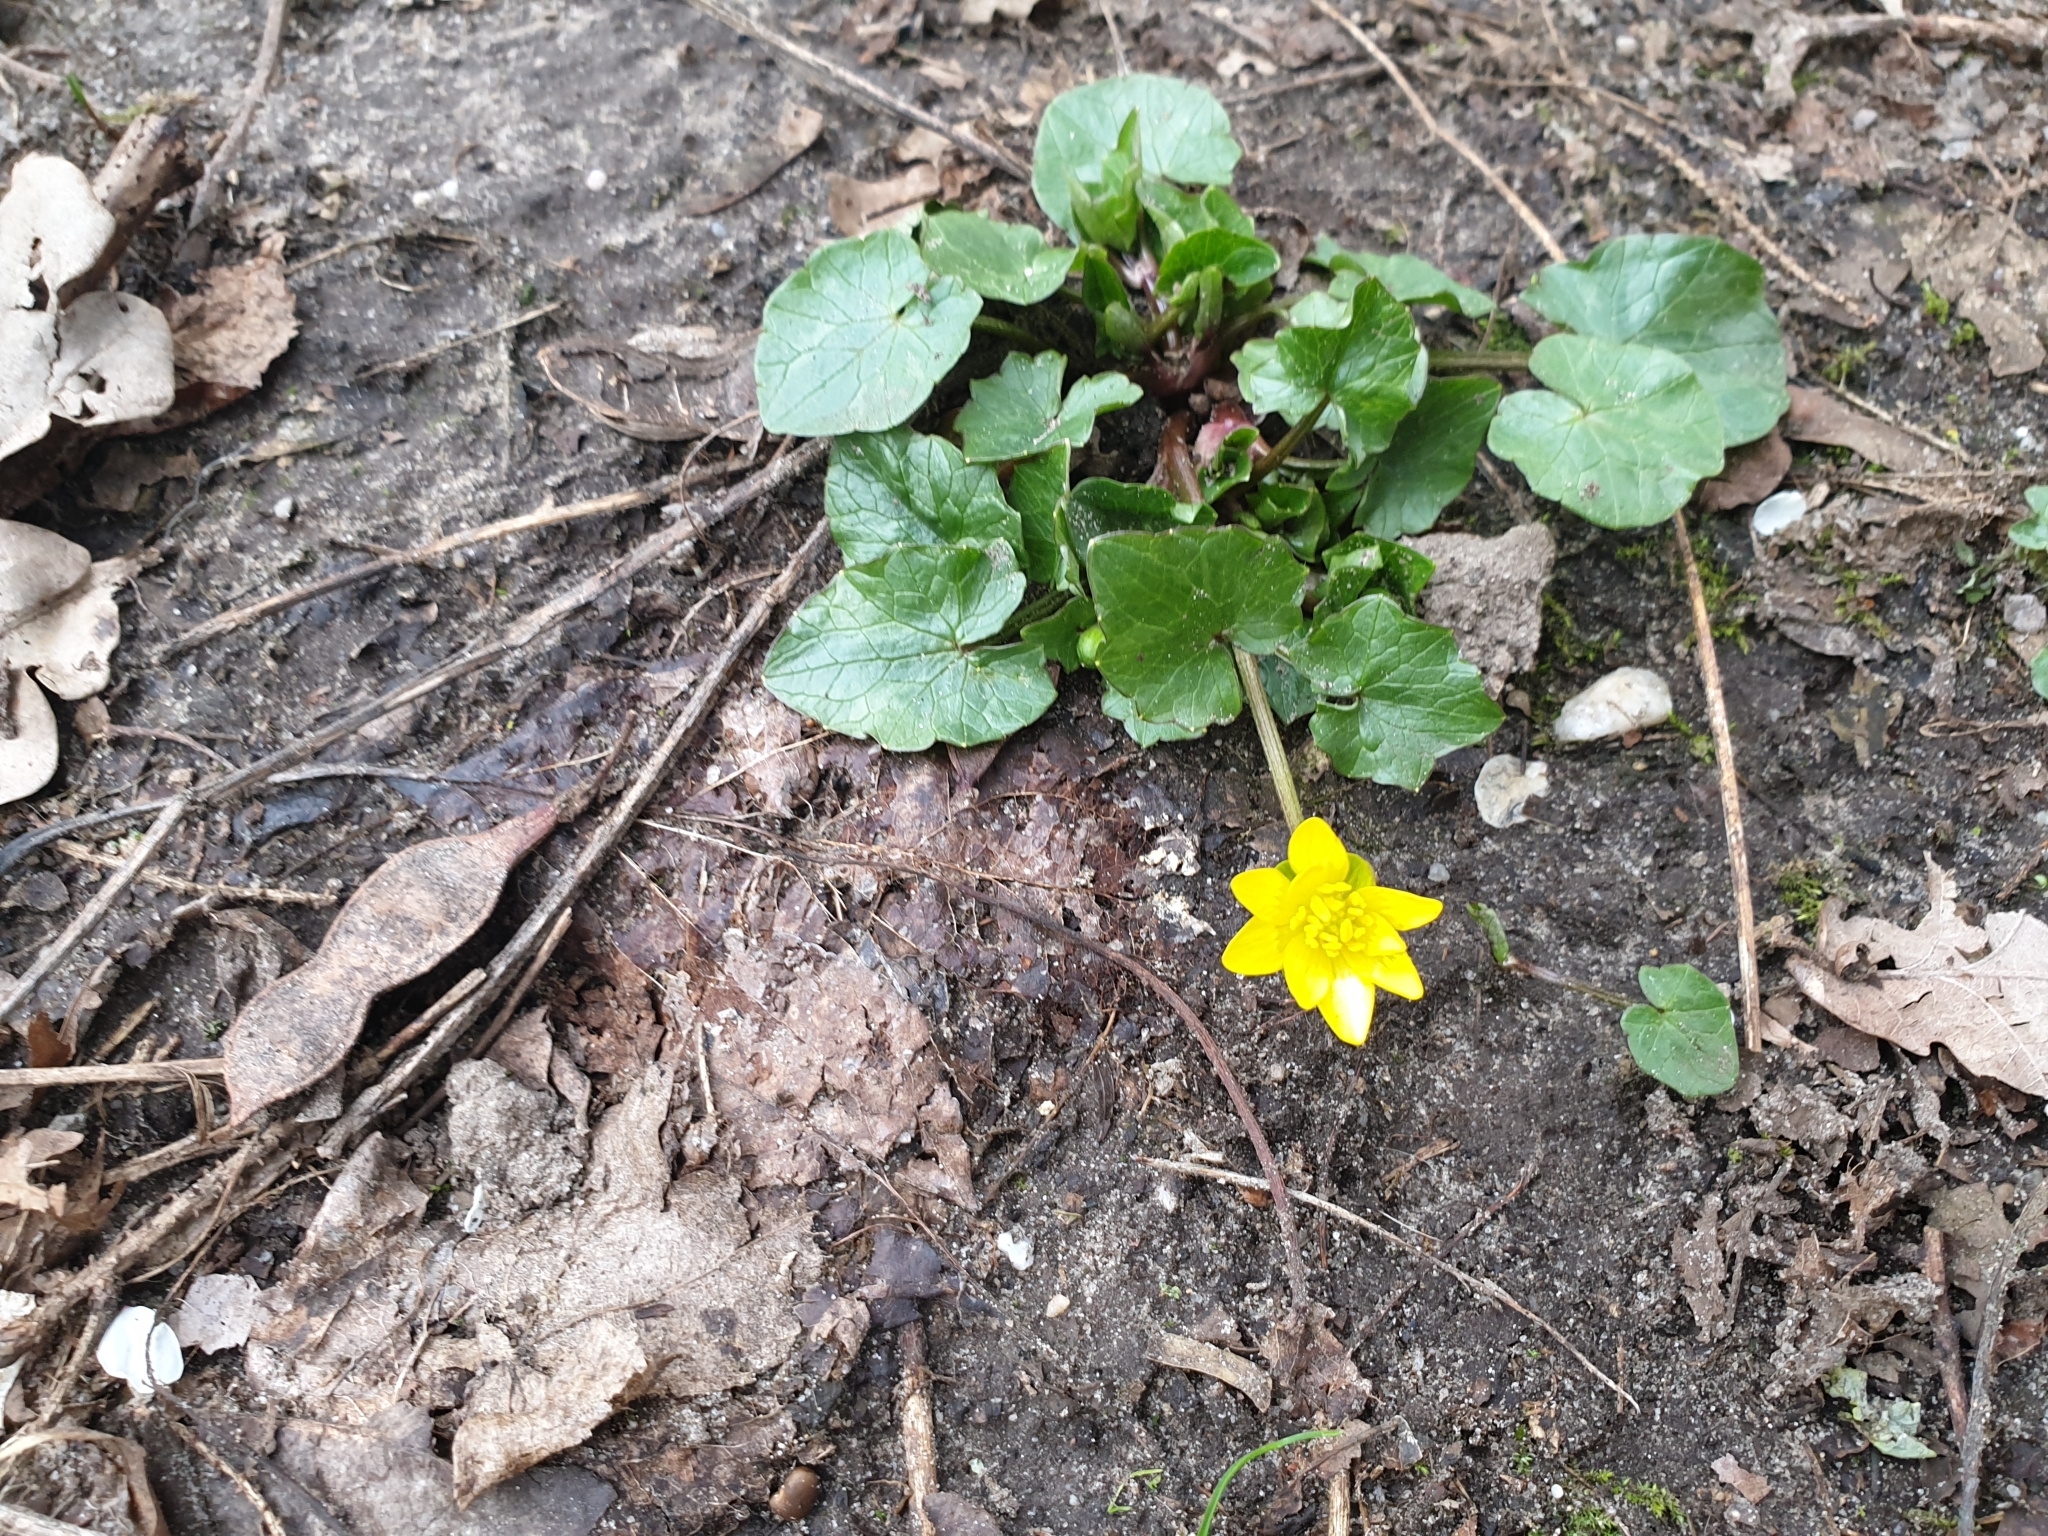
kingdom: Plantae
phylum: Tracheophyta
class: Magnoliopsida
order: Ranunculales
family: Ranunculaceae
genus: Ficaria
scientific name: Ficaria verna
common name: Lesser celandine
